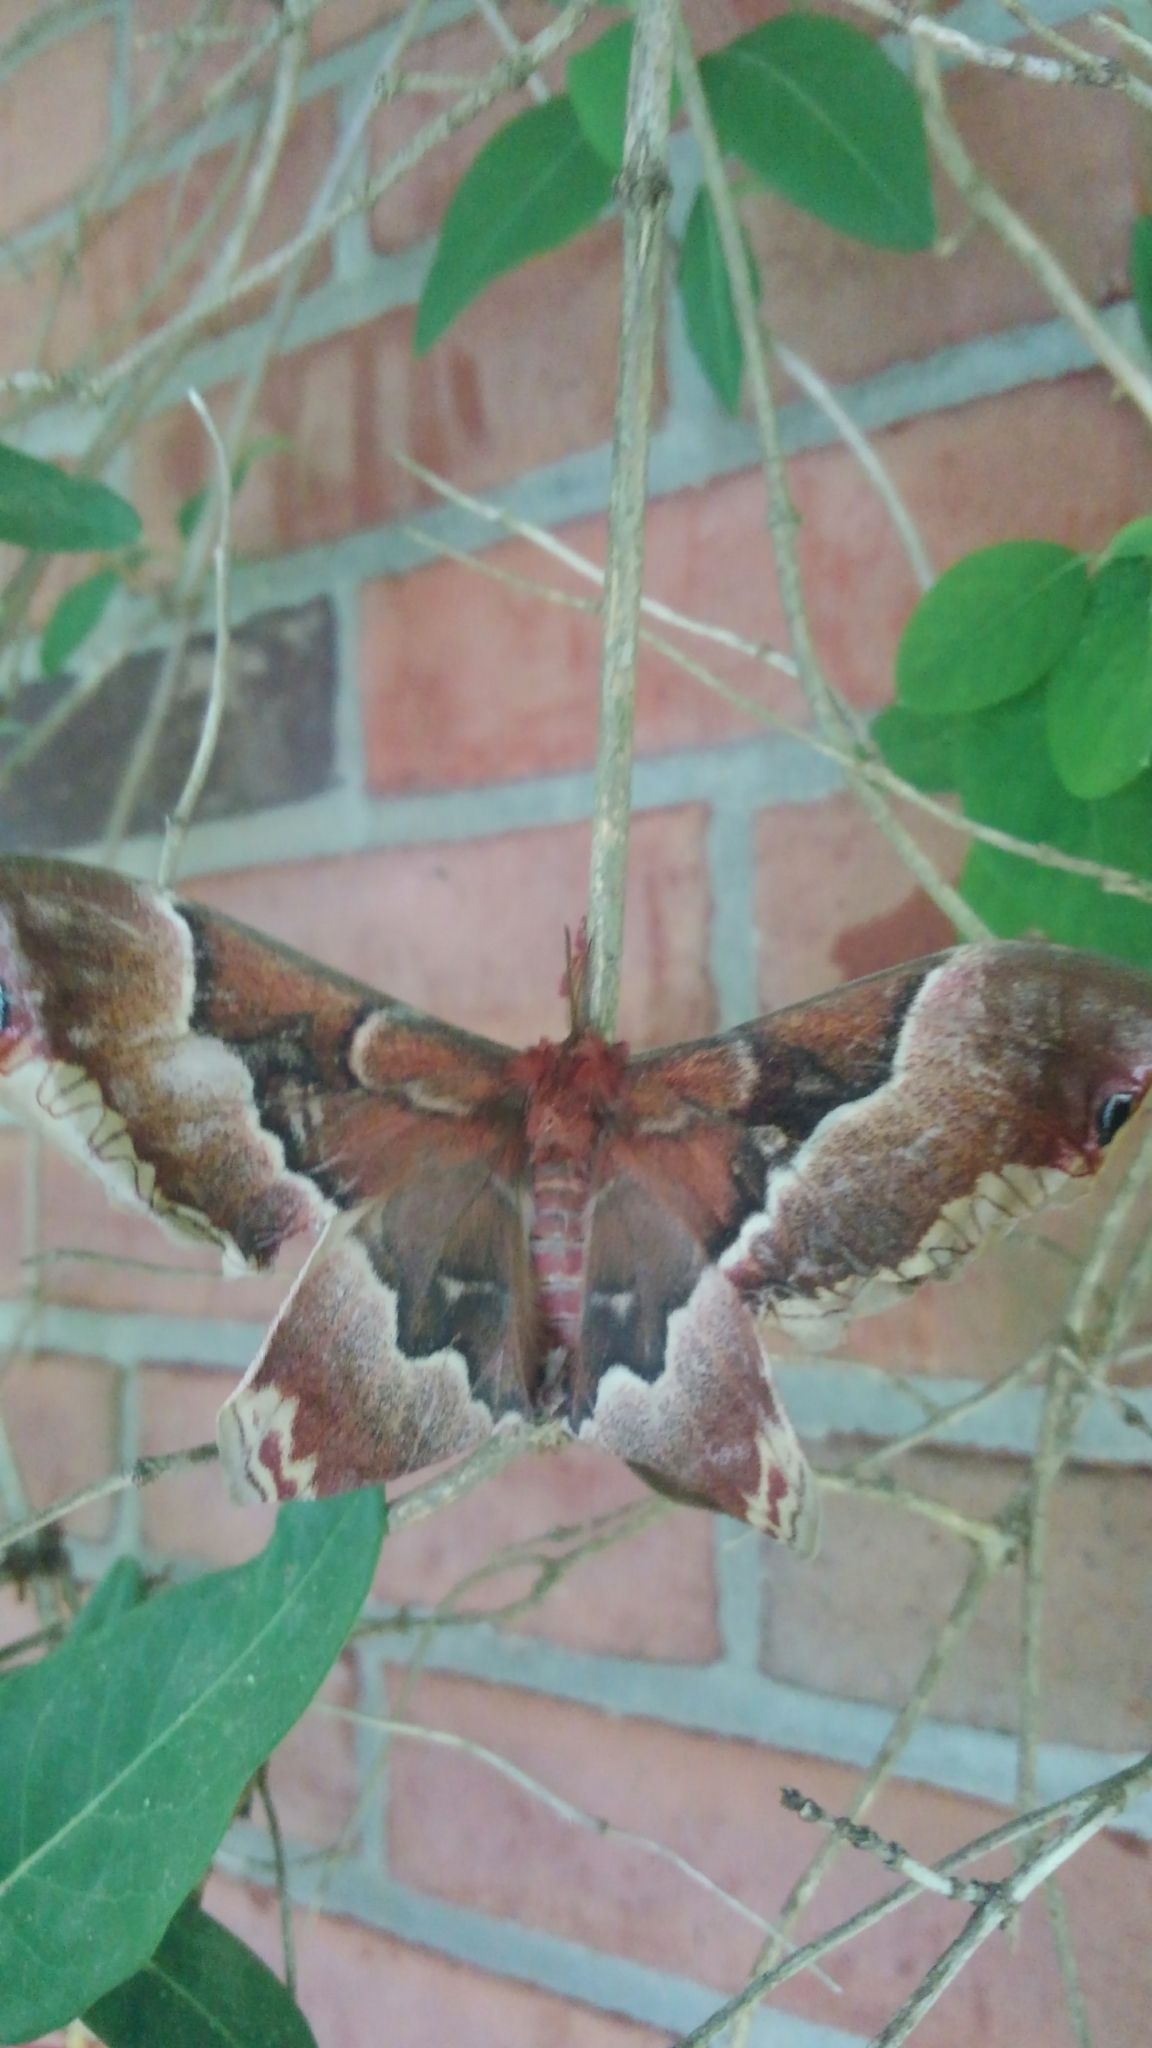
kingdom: Animalia
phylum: Arthropoda
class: Insecta
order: Lepidoptera
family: Saturniidae
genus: Callosamia
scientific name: Callosamia promethea
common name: Promethea silkmoth
